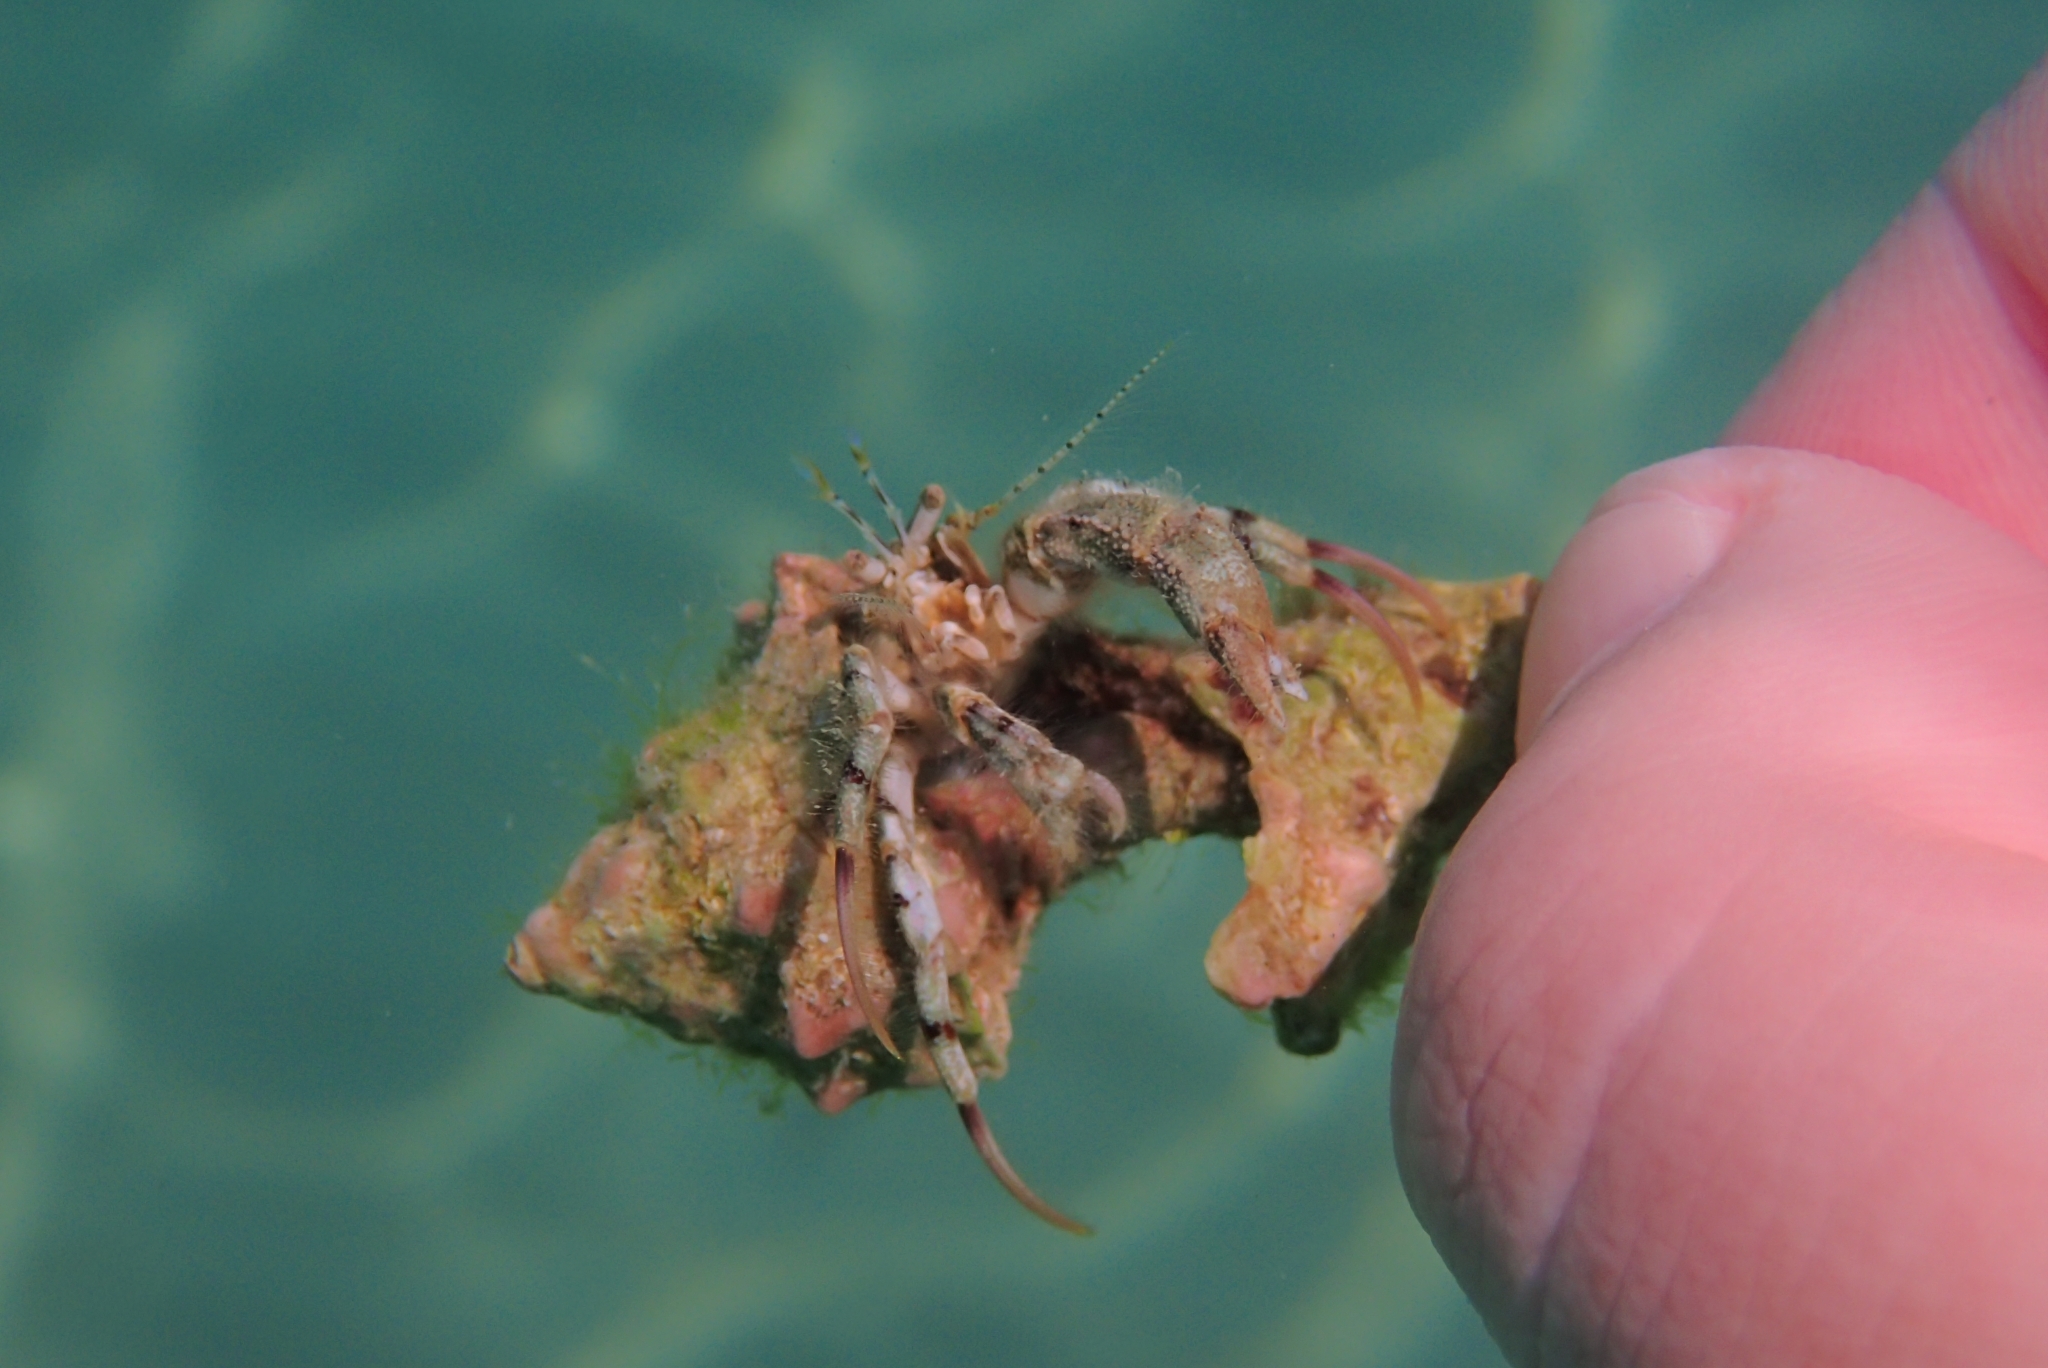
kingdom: Animalia
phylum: Arthropoda
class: Malacostraca
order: Decapoda
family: Diogenidae
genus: Diogenes
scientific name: Diogenes pugilator
